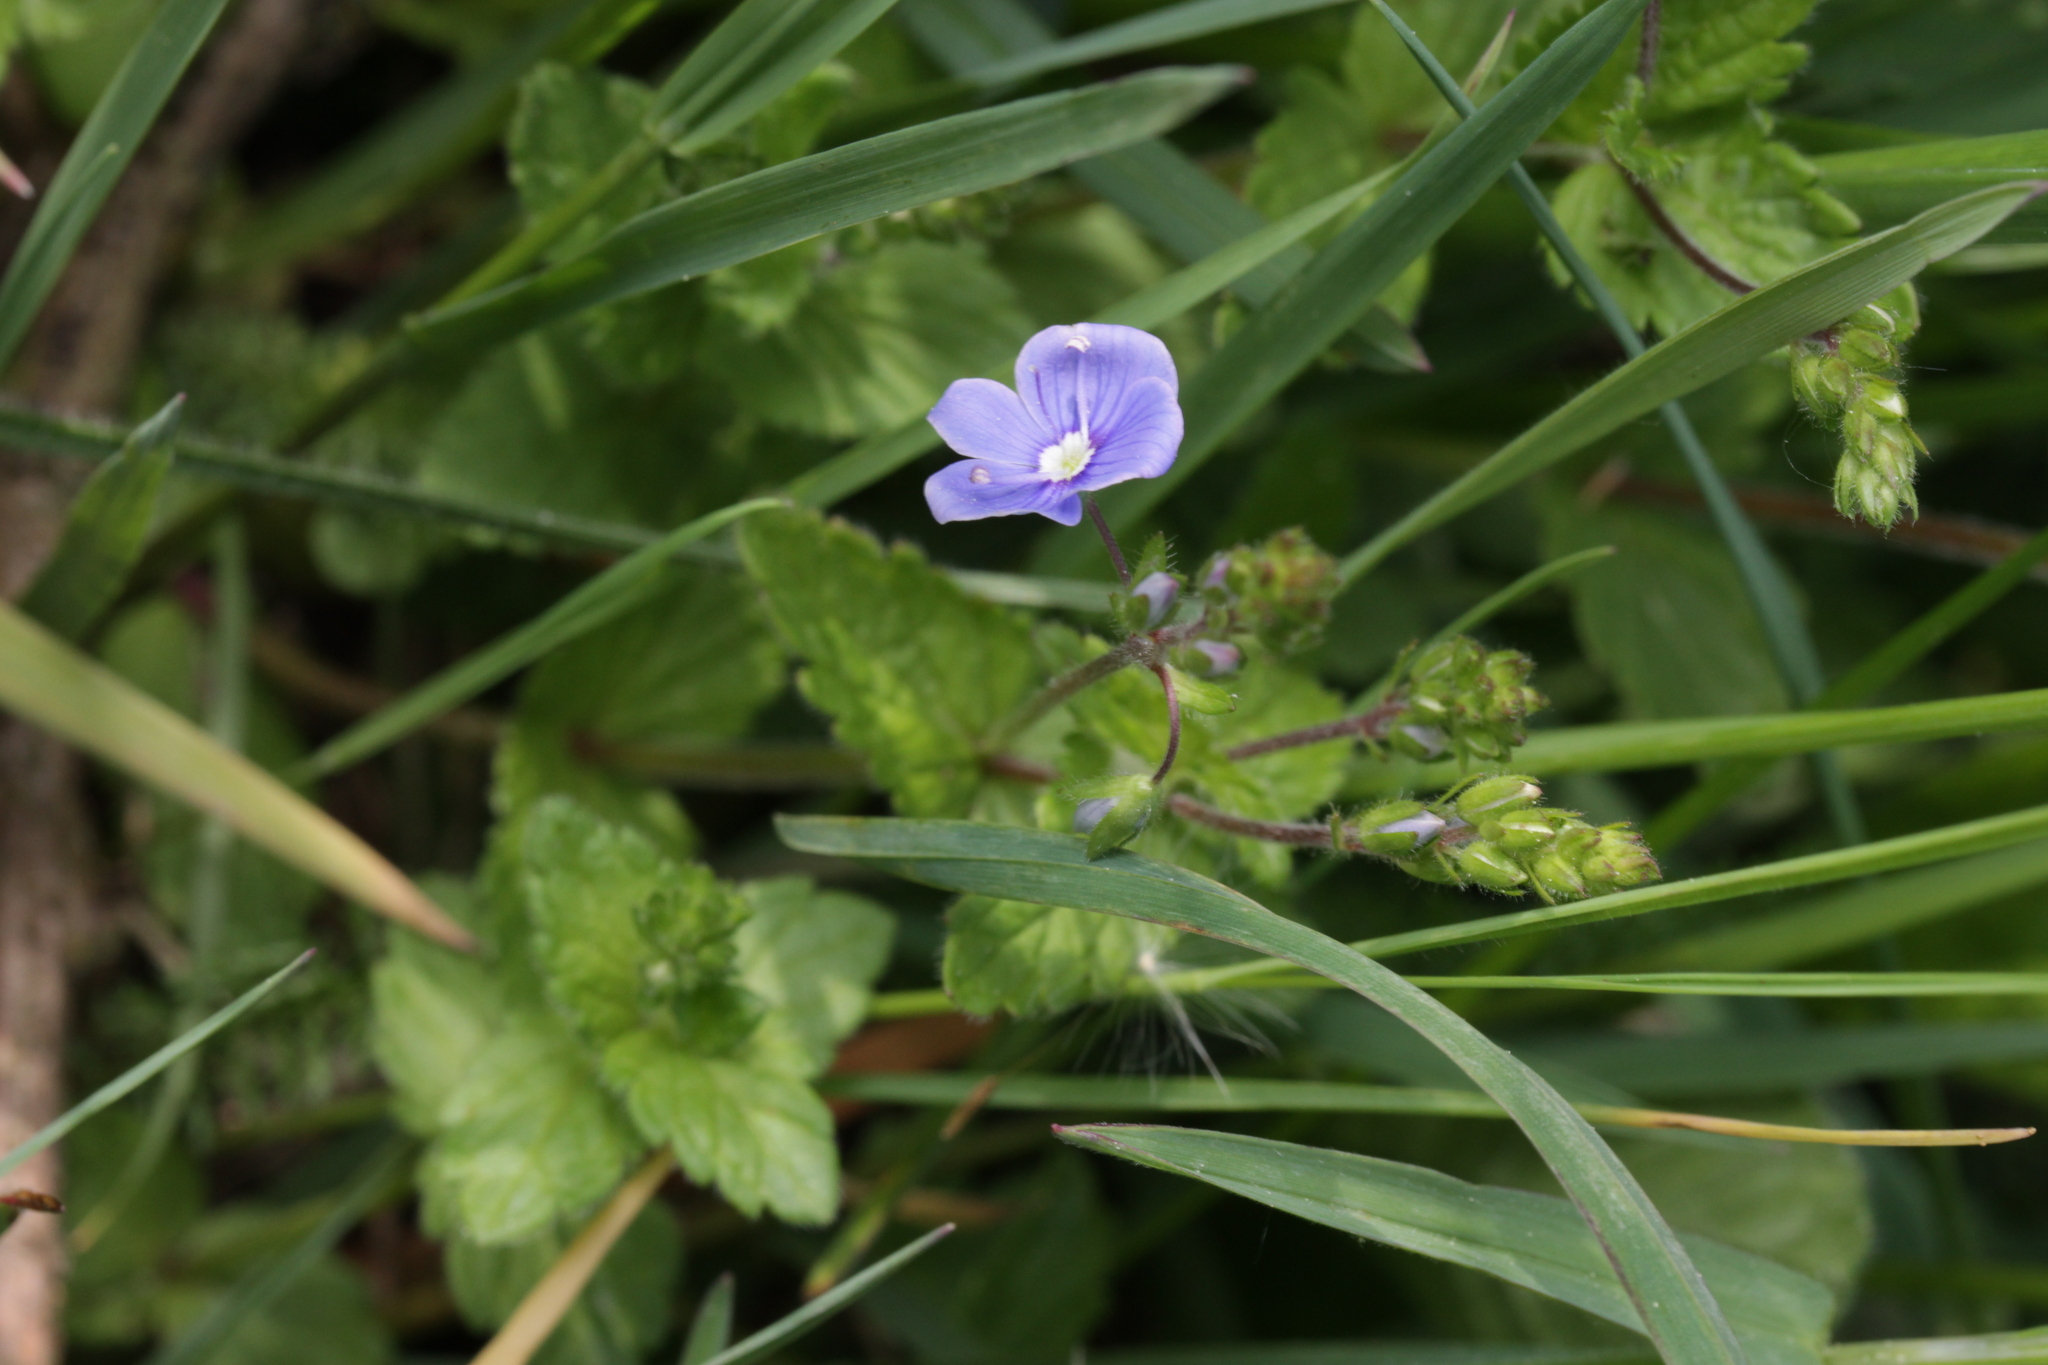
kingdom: Plantae
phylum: Tracheophyta
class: Magnoliopsida
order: Lamiales
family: Plantaginaceae
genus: Veronica
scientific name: Veronica chamaedrys
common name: Germander speedwell
